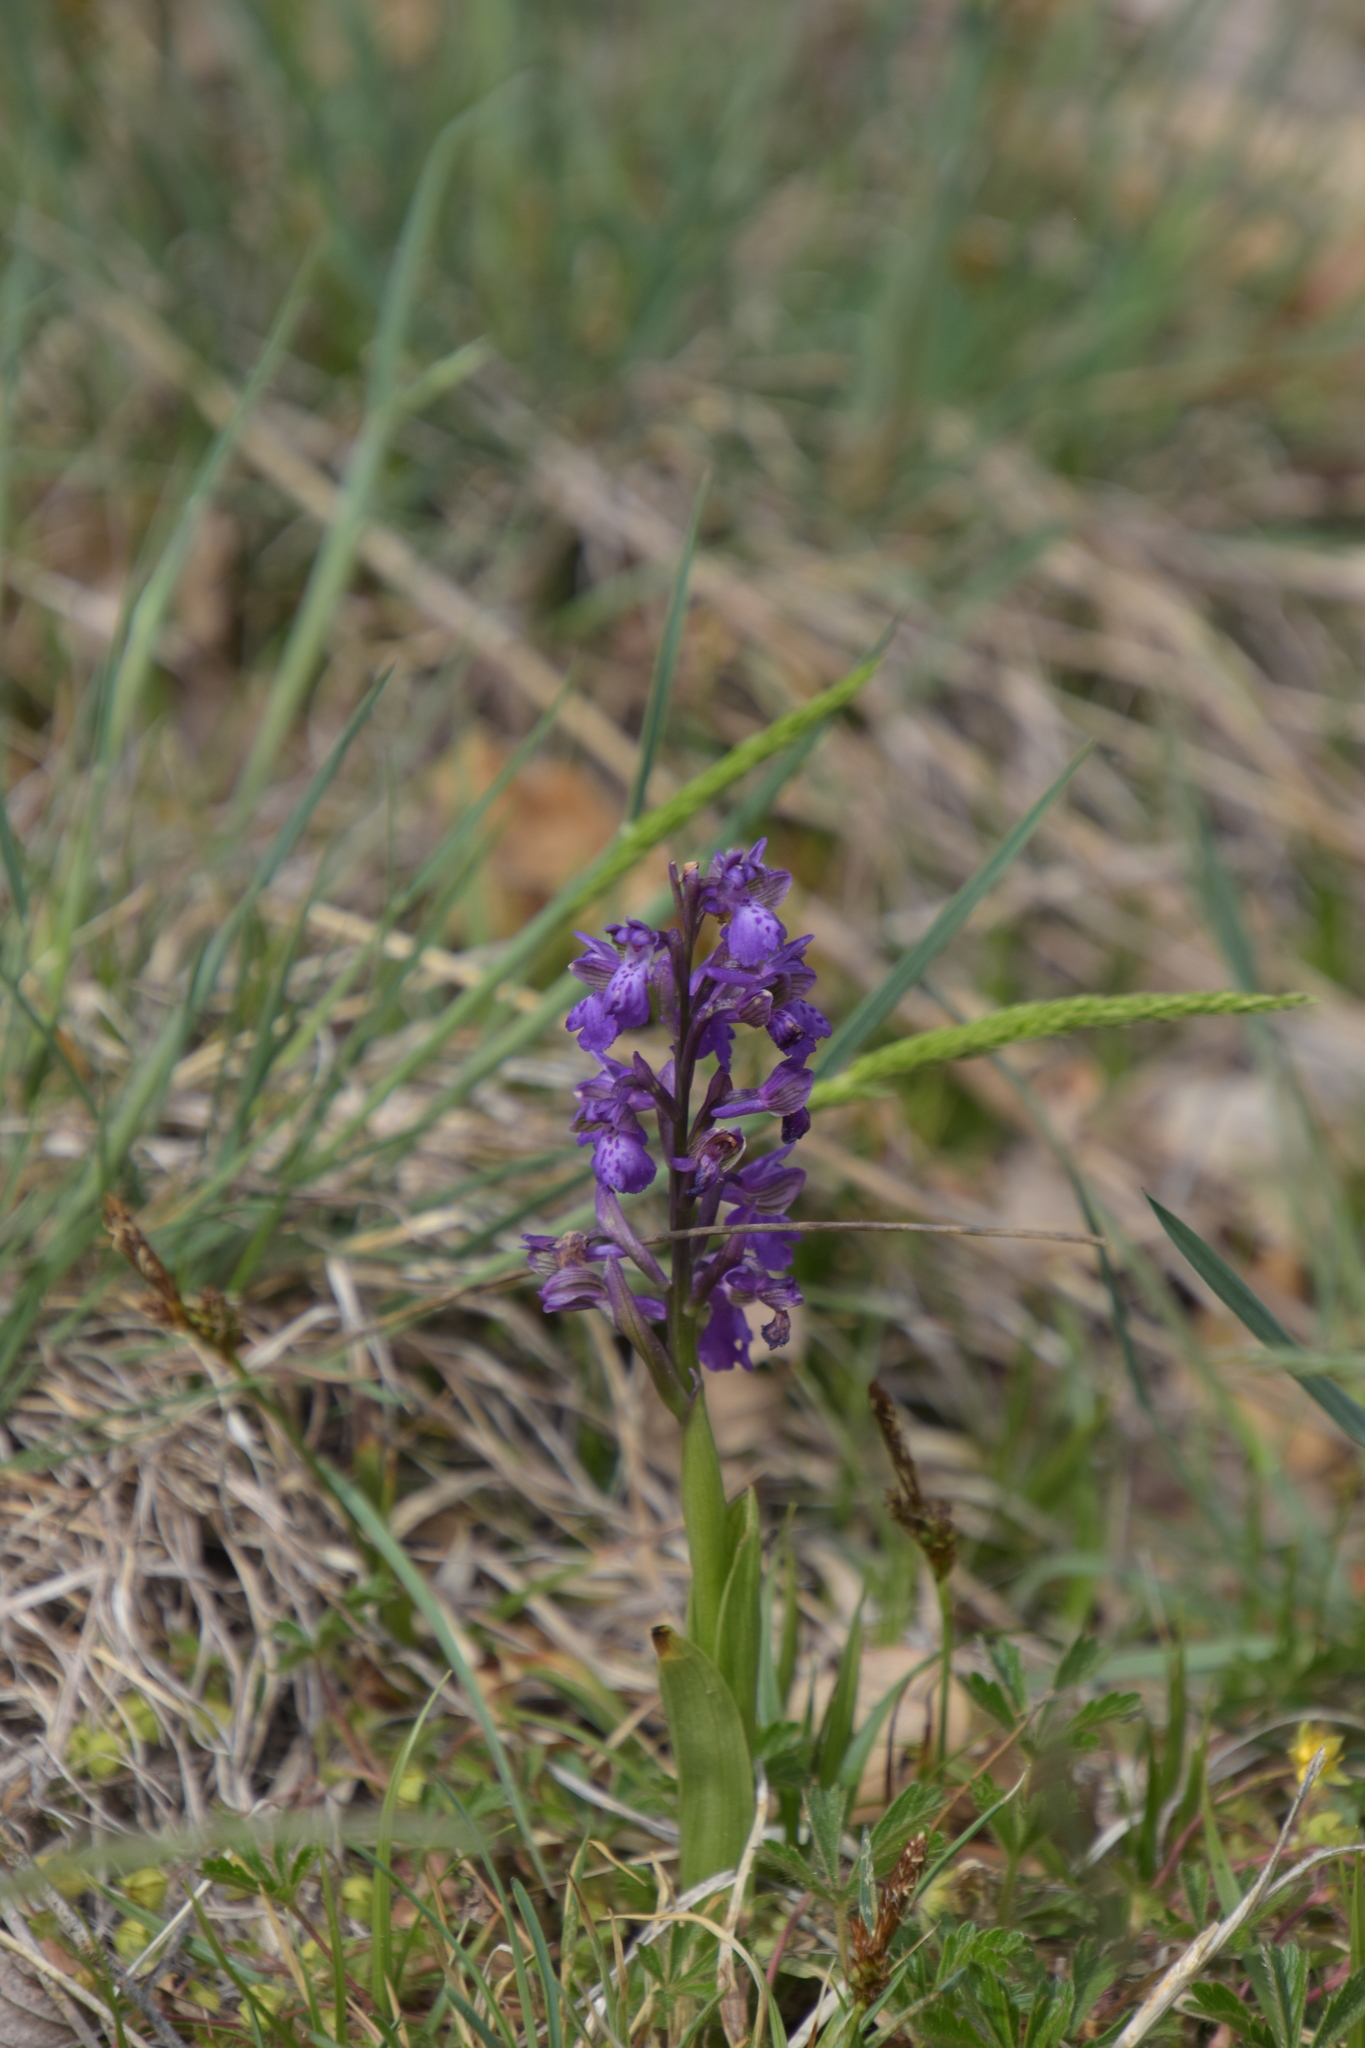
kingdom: Plantae
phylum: Tracheophyta
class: Liliopsida
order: Asparagales
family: Orchidaceae
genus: Anacamptis
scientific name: Anacamptis morio
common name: Green-winged orchid
